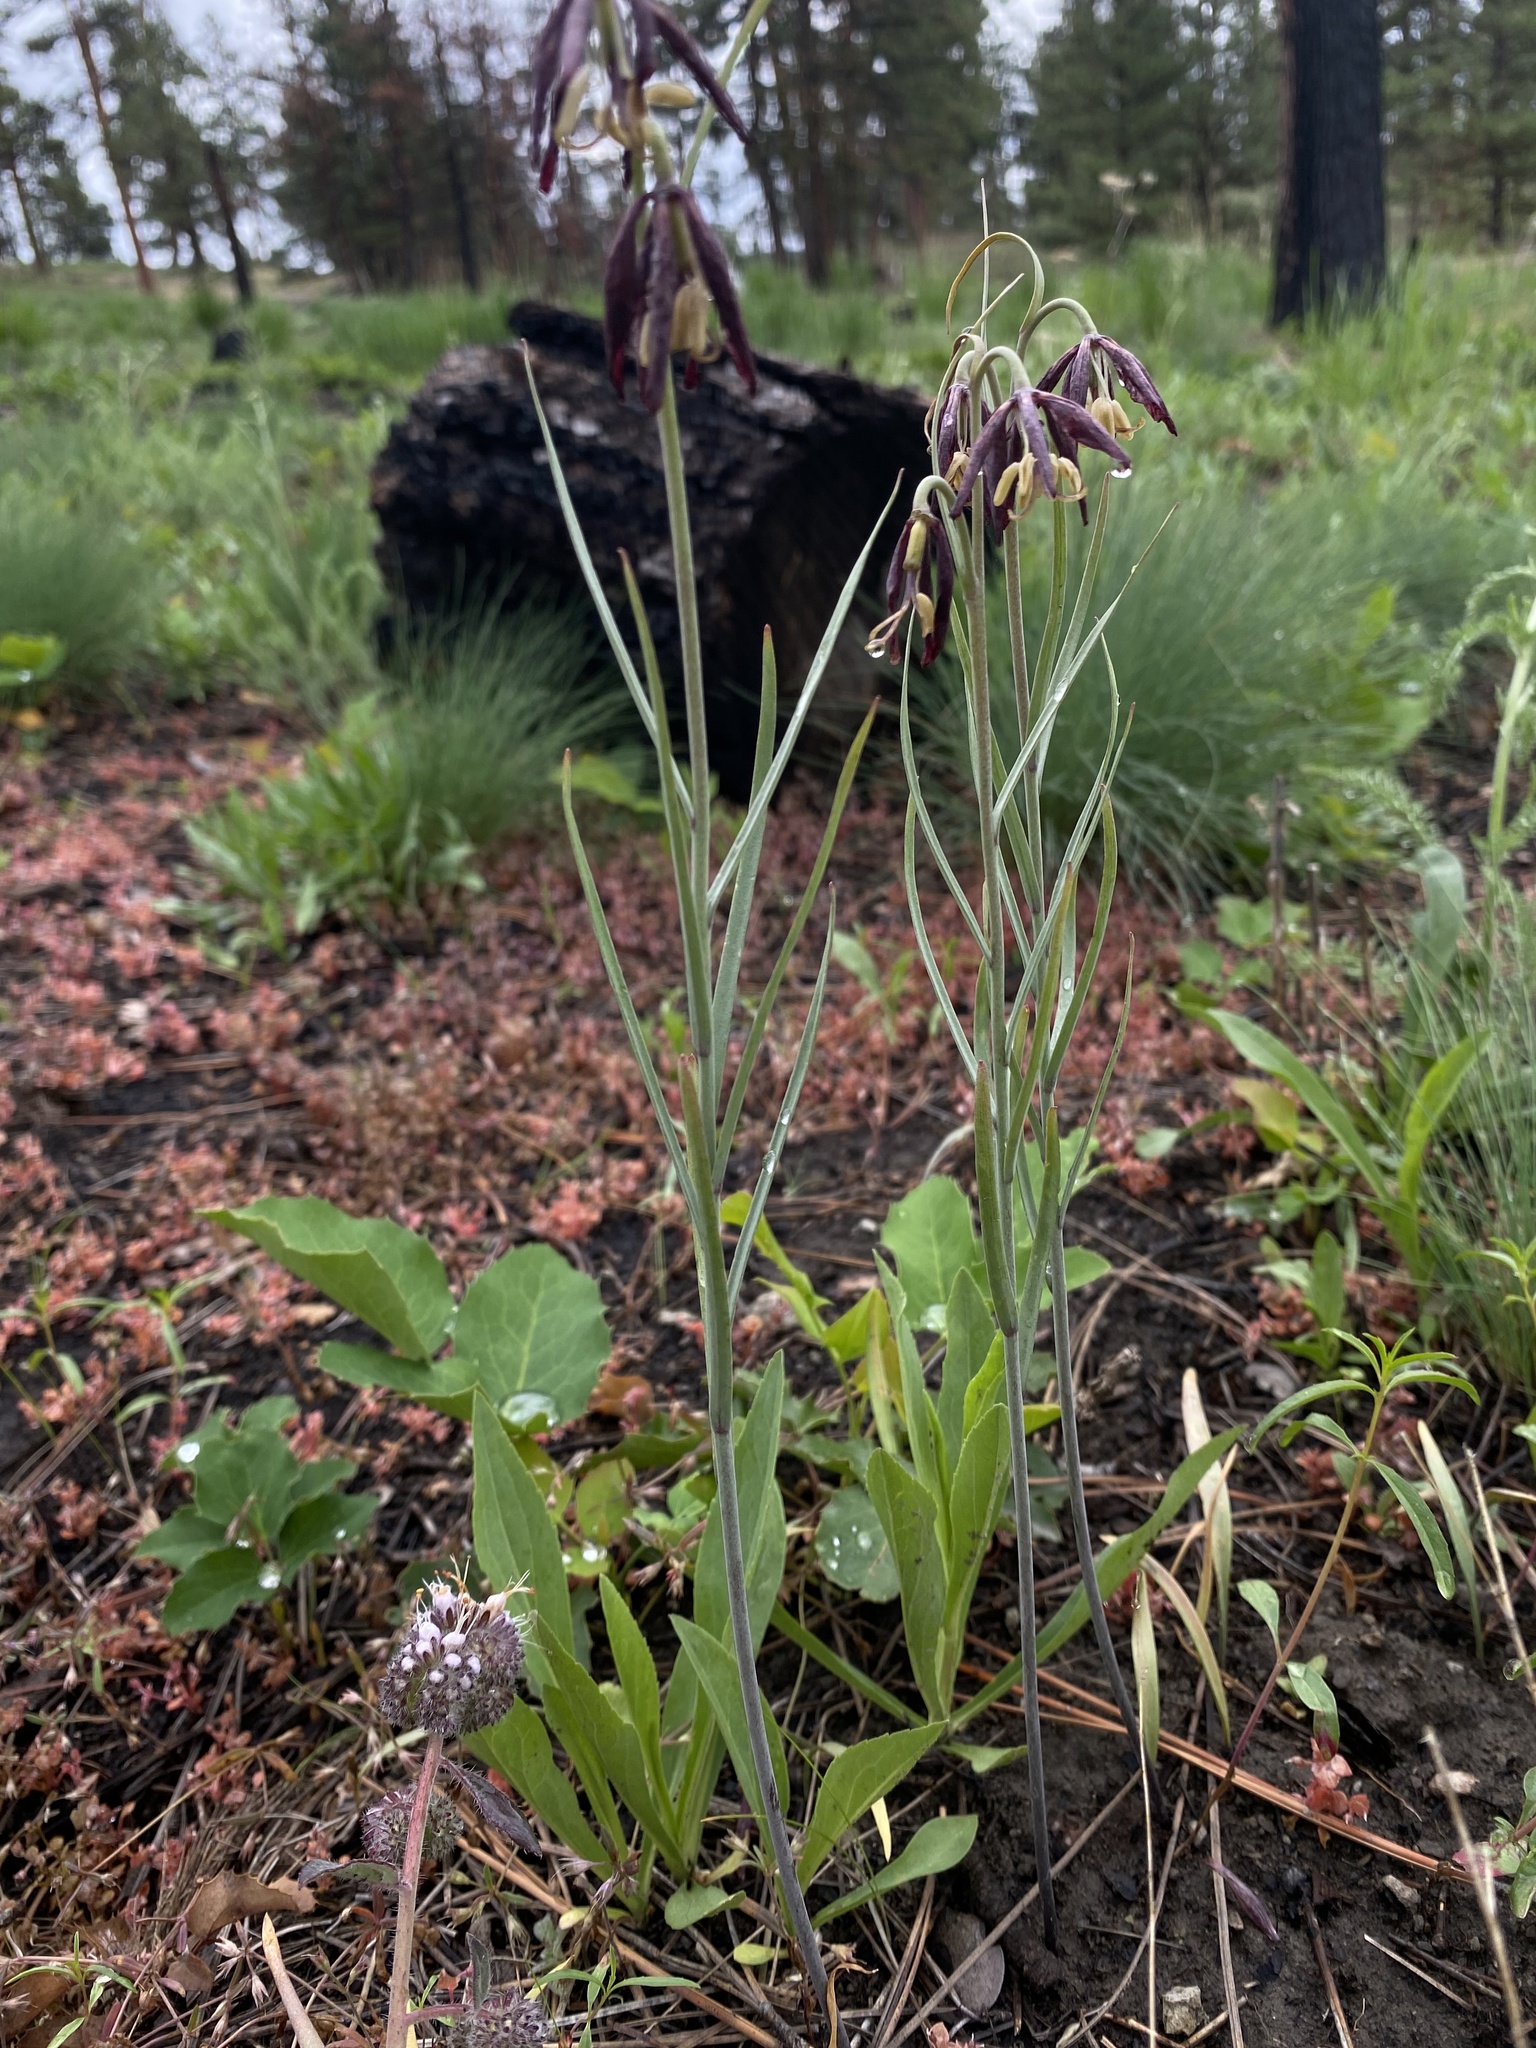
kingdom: Plantae
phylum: Tracheophyta
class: Liliopsida
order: Liliales
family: Liliaceae
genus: Fritillaria
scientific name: Fritillaria atropurpurea
